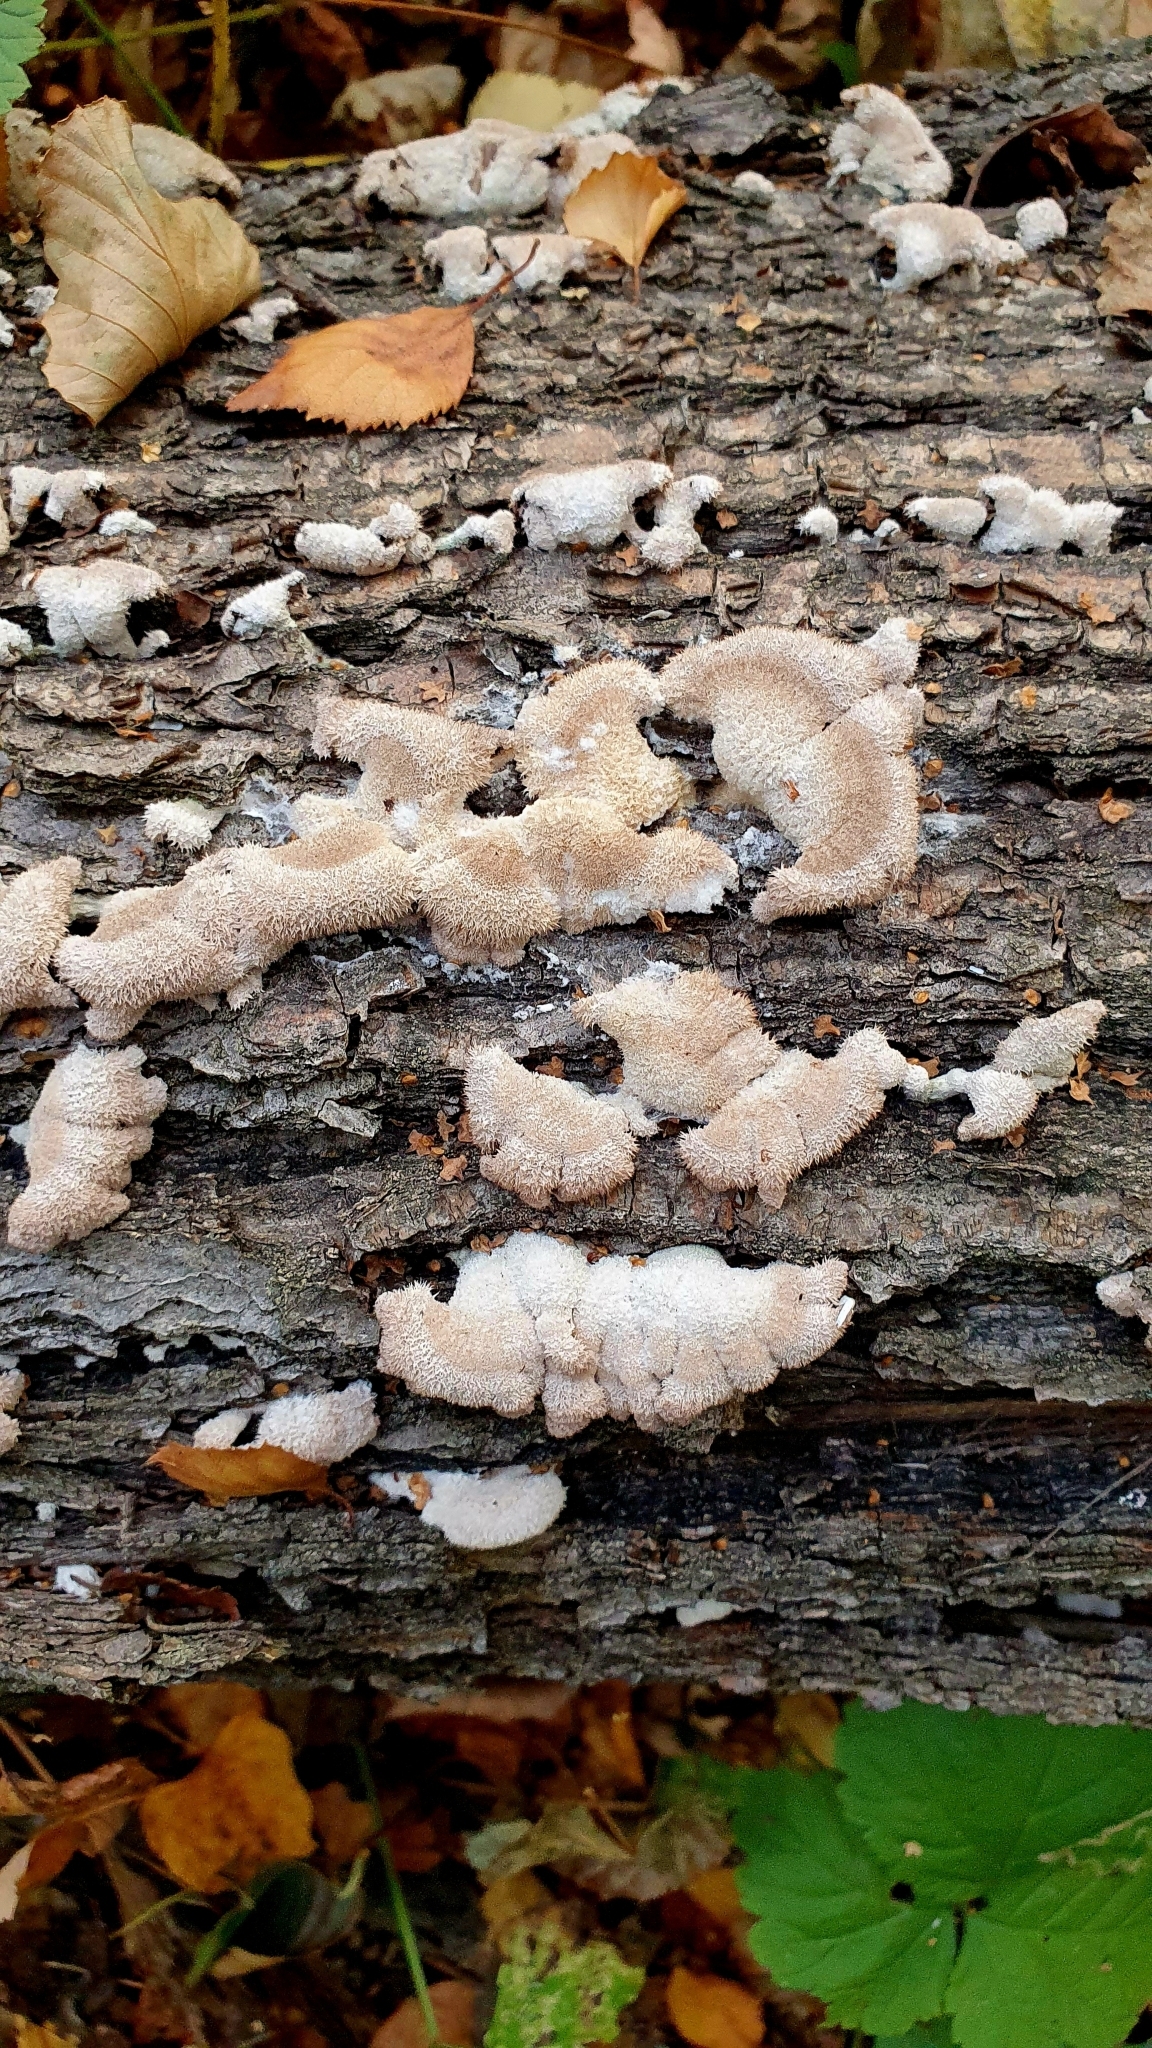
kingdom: Fungi
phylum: Basidiomycota
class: Agaricomycetes
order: Agaricales
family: Schizophyllaceae
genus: Schizophyllum
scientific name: Schizophyllum commune
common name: Common porecrust
